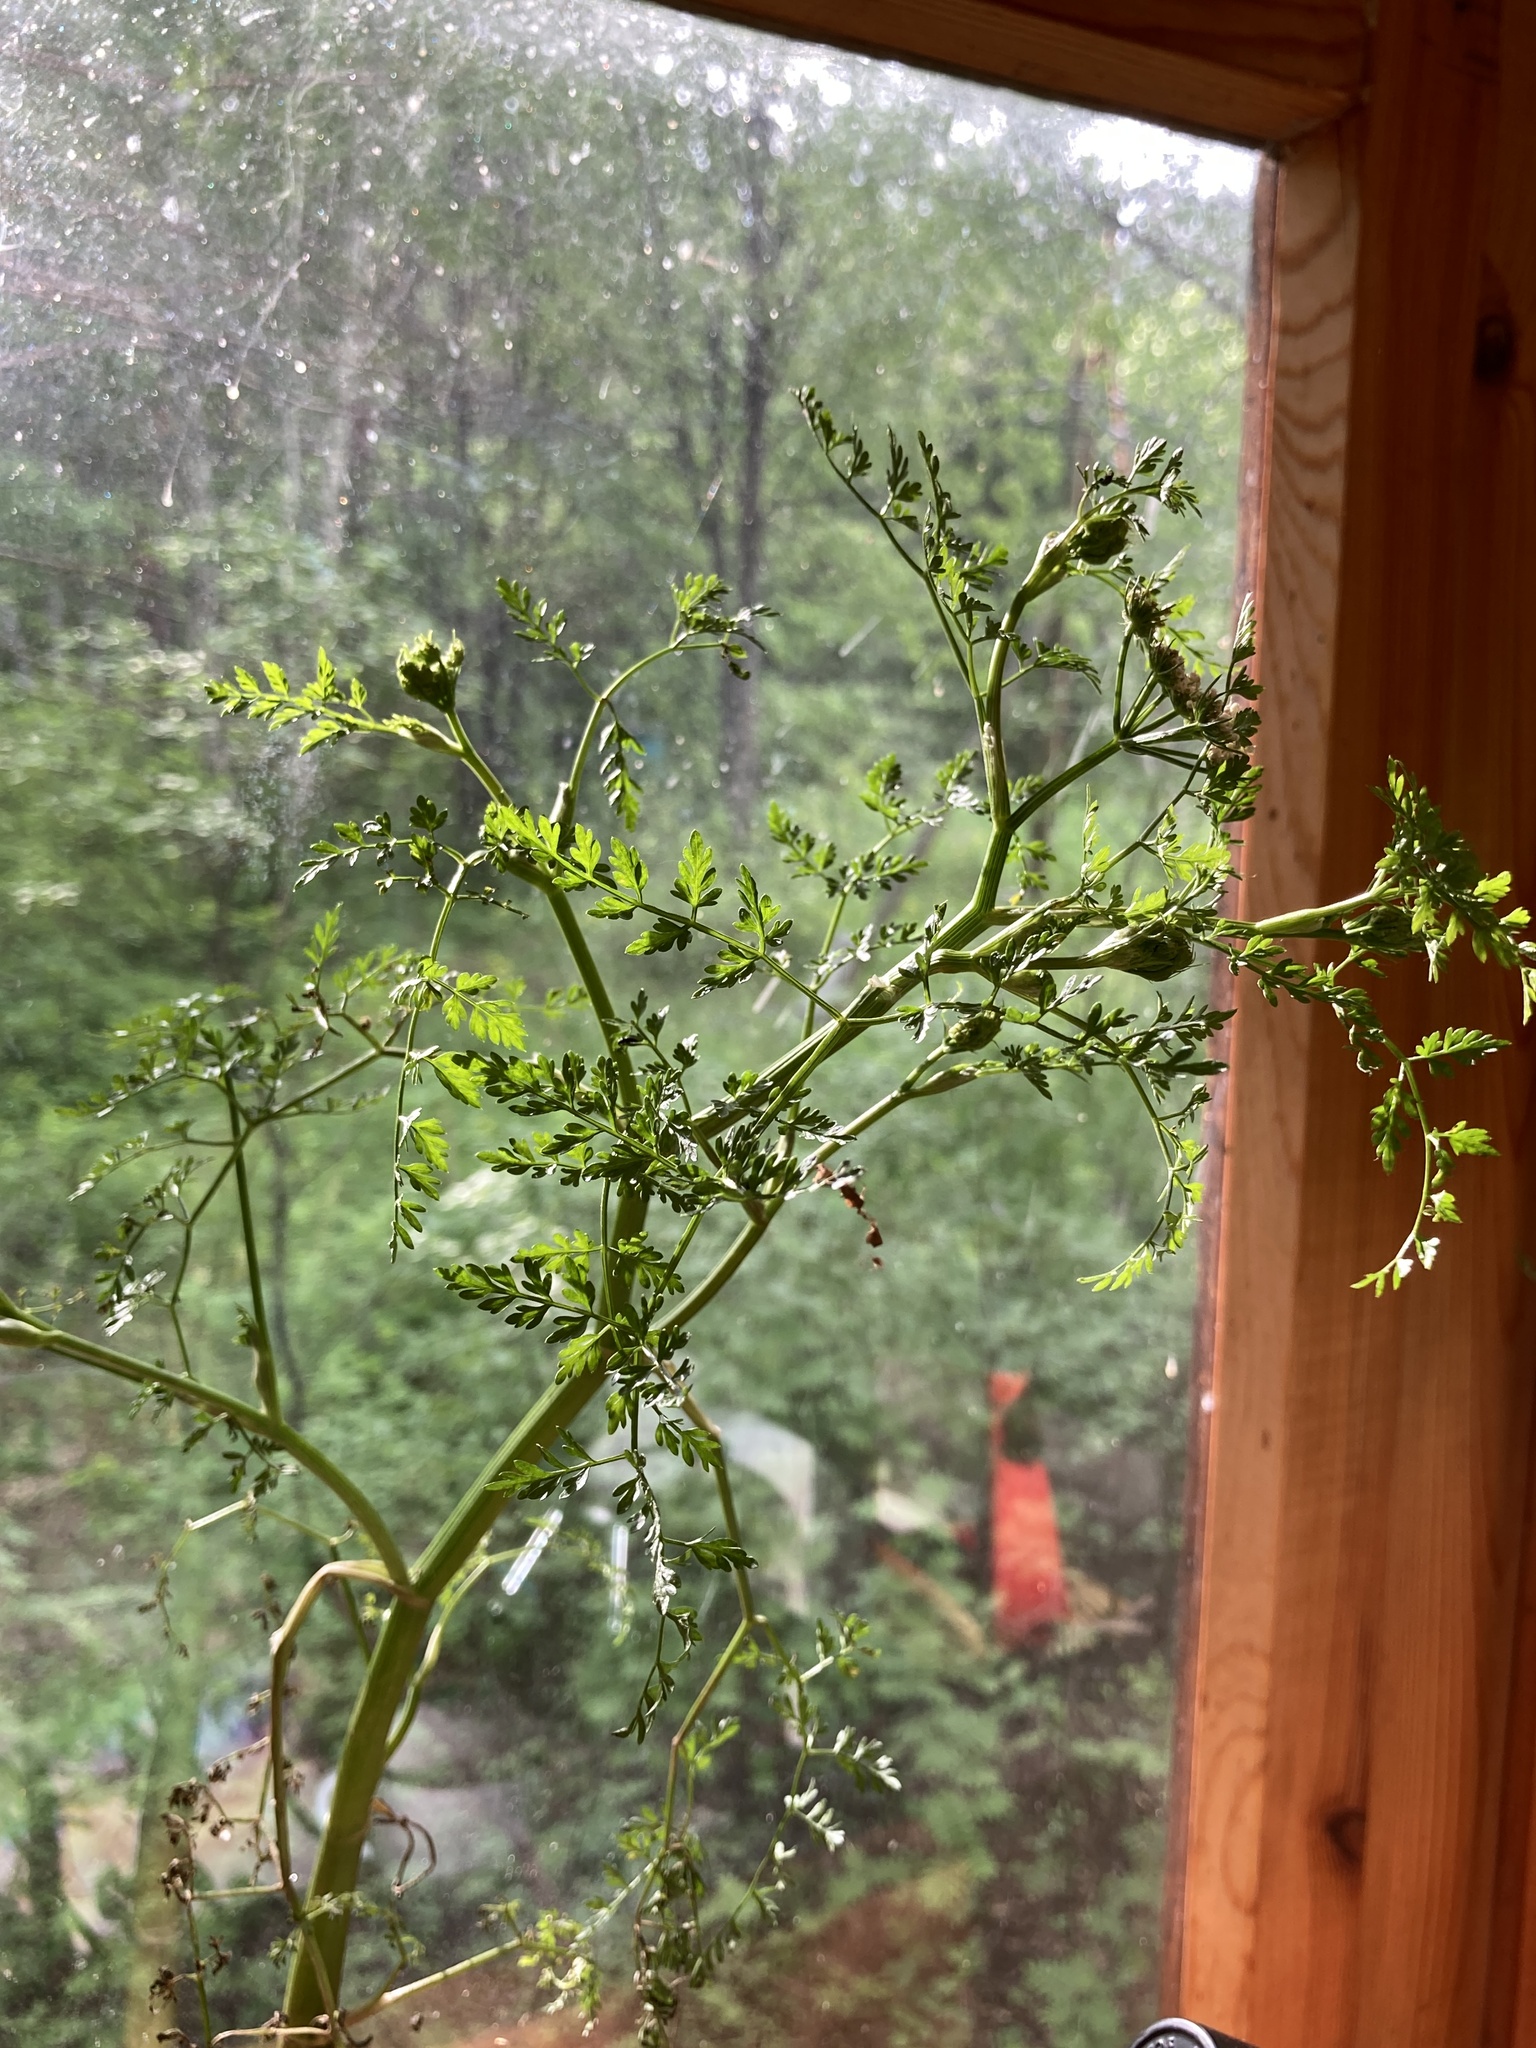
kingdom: Plantae
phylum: Tracheophyta
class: Magnoliopsida
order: Apiales
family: Apiaceae
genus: Oenanthe
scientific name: Oenanthe aquatica
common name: Fine-leaved water-dropwort
